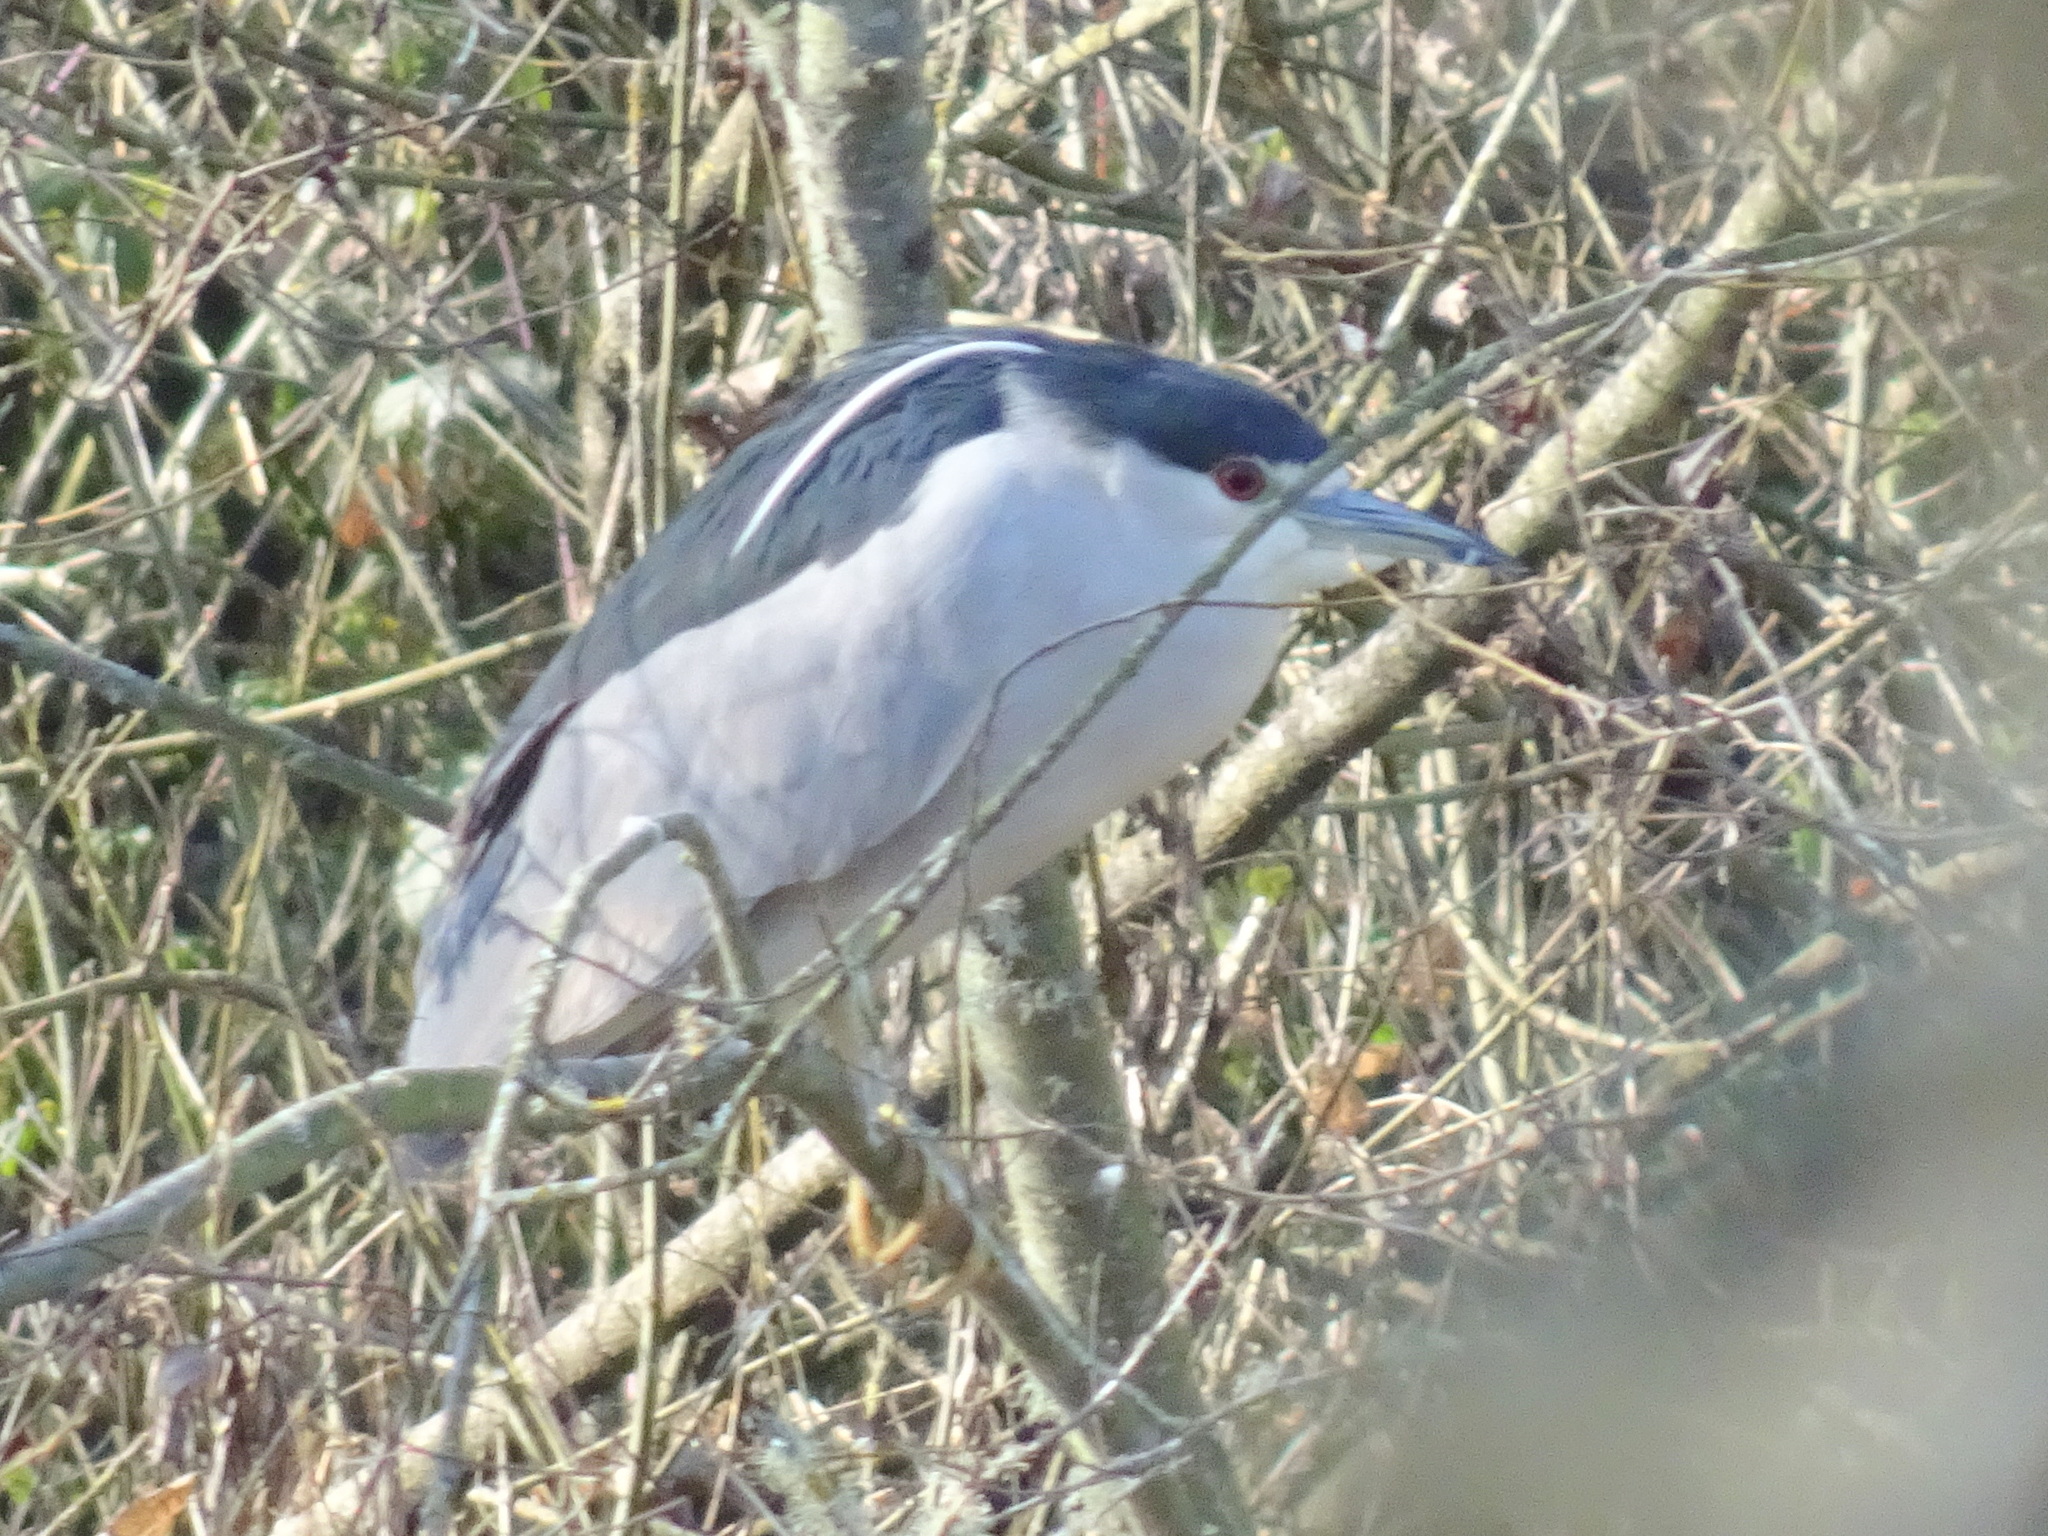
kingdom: Animalia
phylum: Chordata
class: Aves
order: Pelecaniformes
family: Ardeidae
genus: Nycticorax
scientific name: Nycticorax nycticorax
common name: Black-crowned night heron
